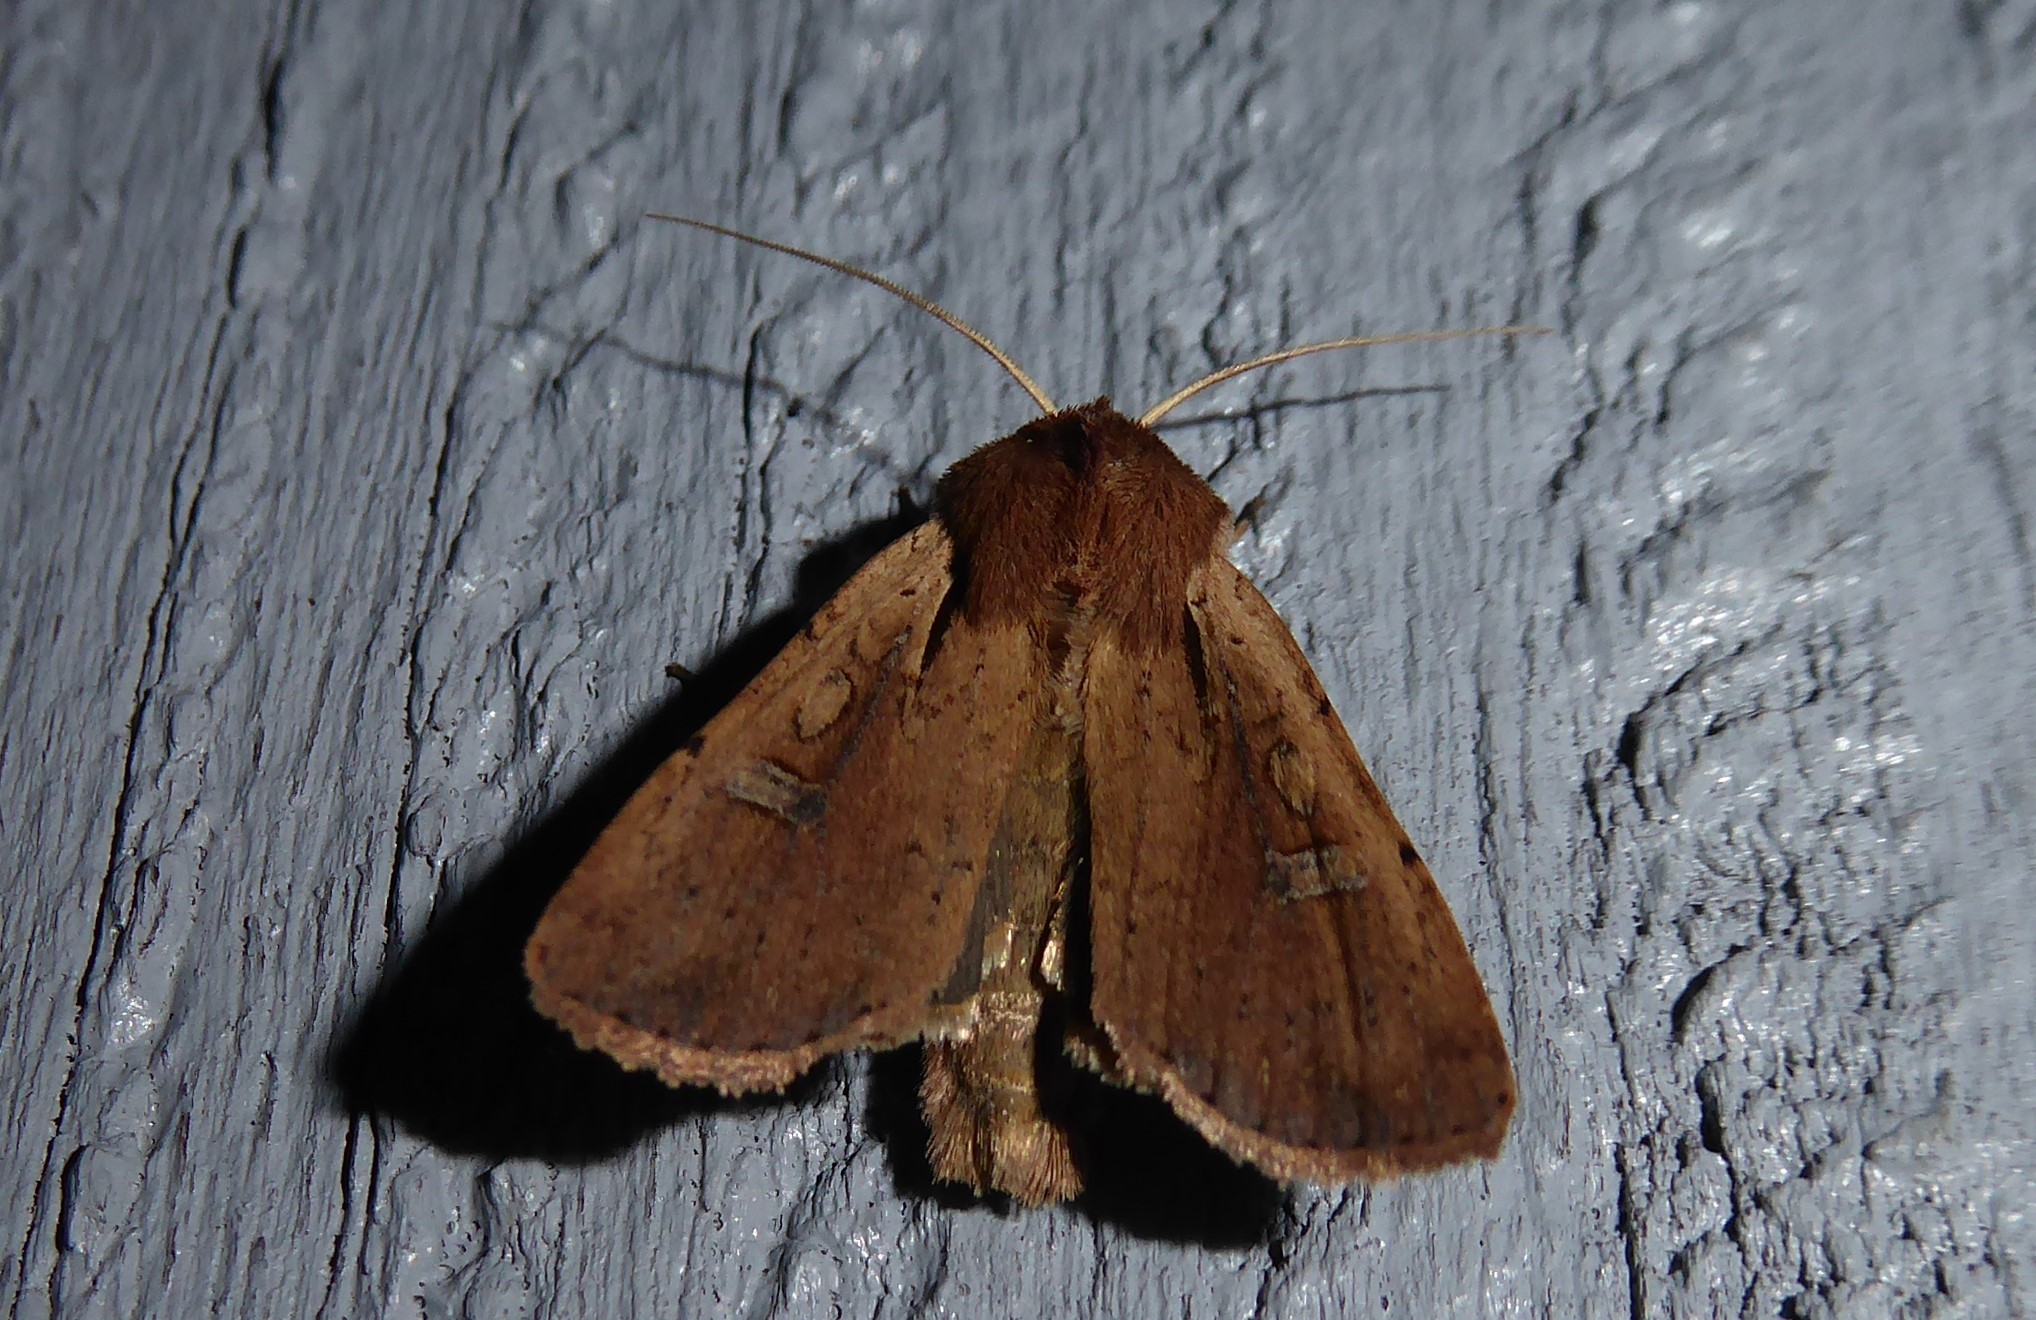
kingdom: Animalia
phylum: Arthropoda
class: Insecta
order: Lepidoptera
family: Noctuidae
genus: Ichneutica
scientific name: Ichneutica atristriga
